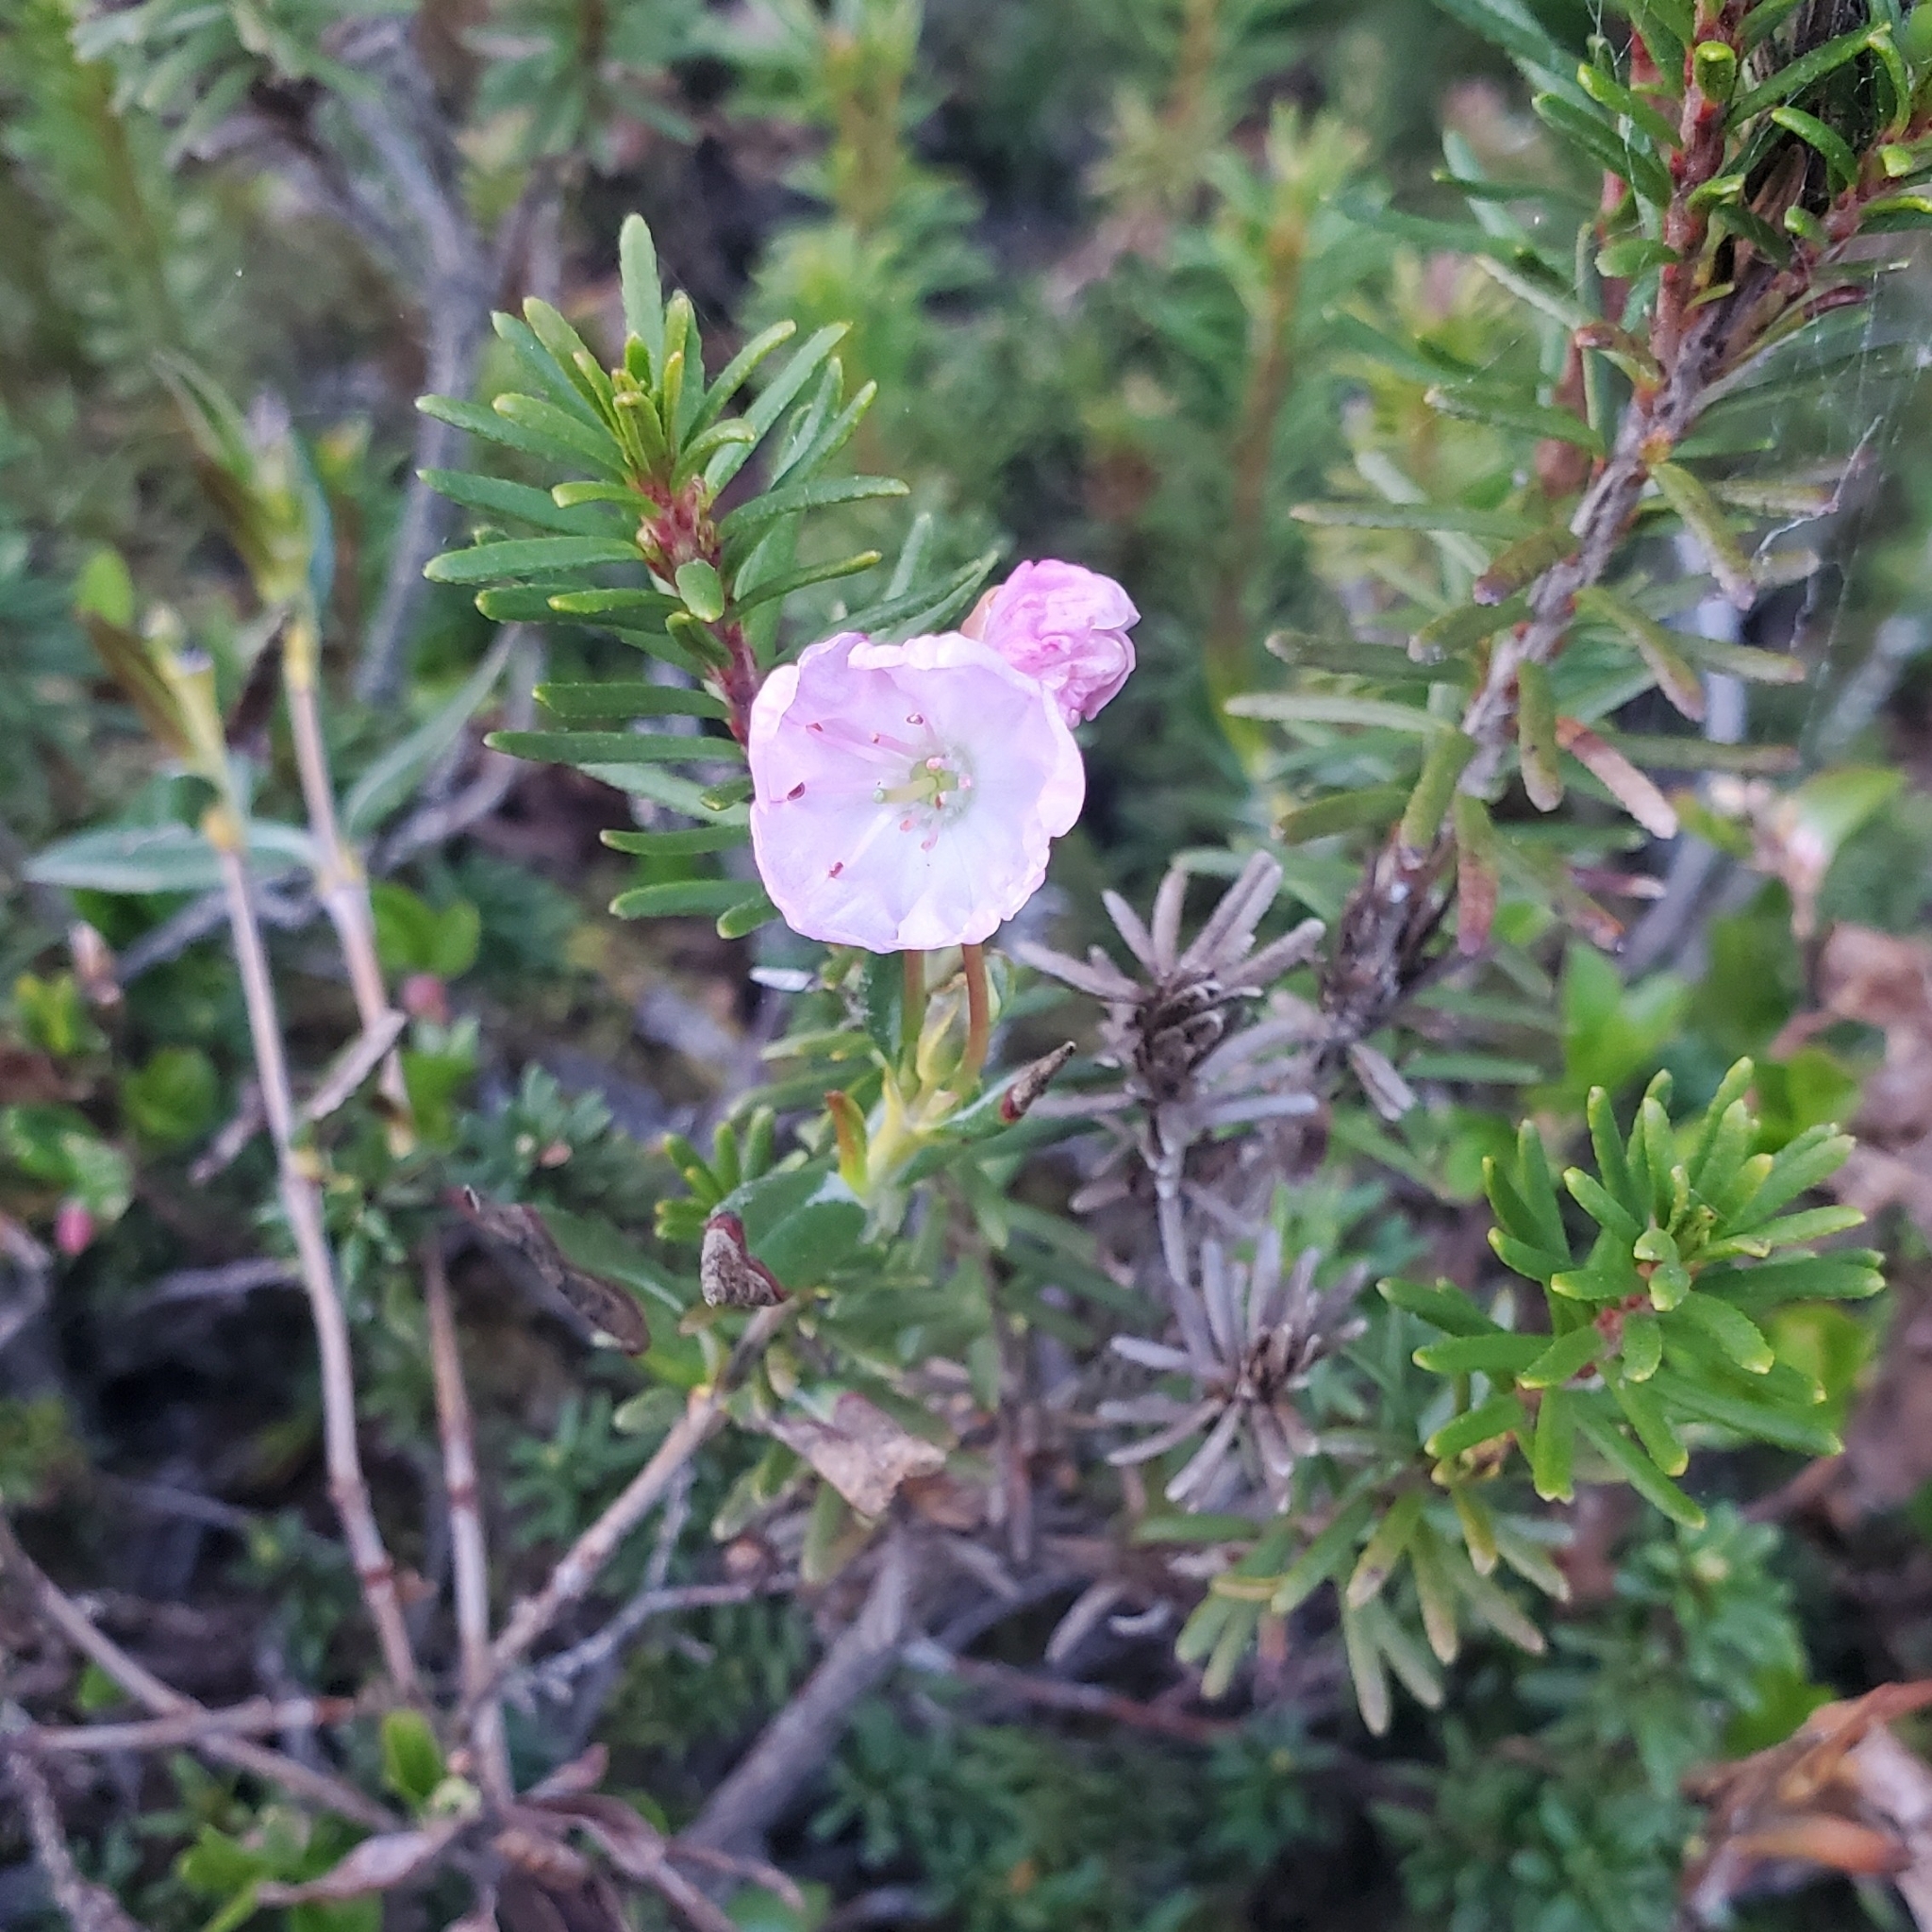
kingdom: Plantae
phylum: Tracheophyta
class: Magnoliopsida
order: Ericales
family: Ericaceae
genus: Phyllodoce
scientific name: Phyllodoce empetriformis
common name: Pink mountain heather
